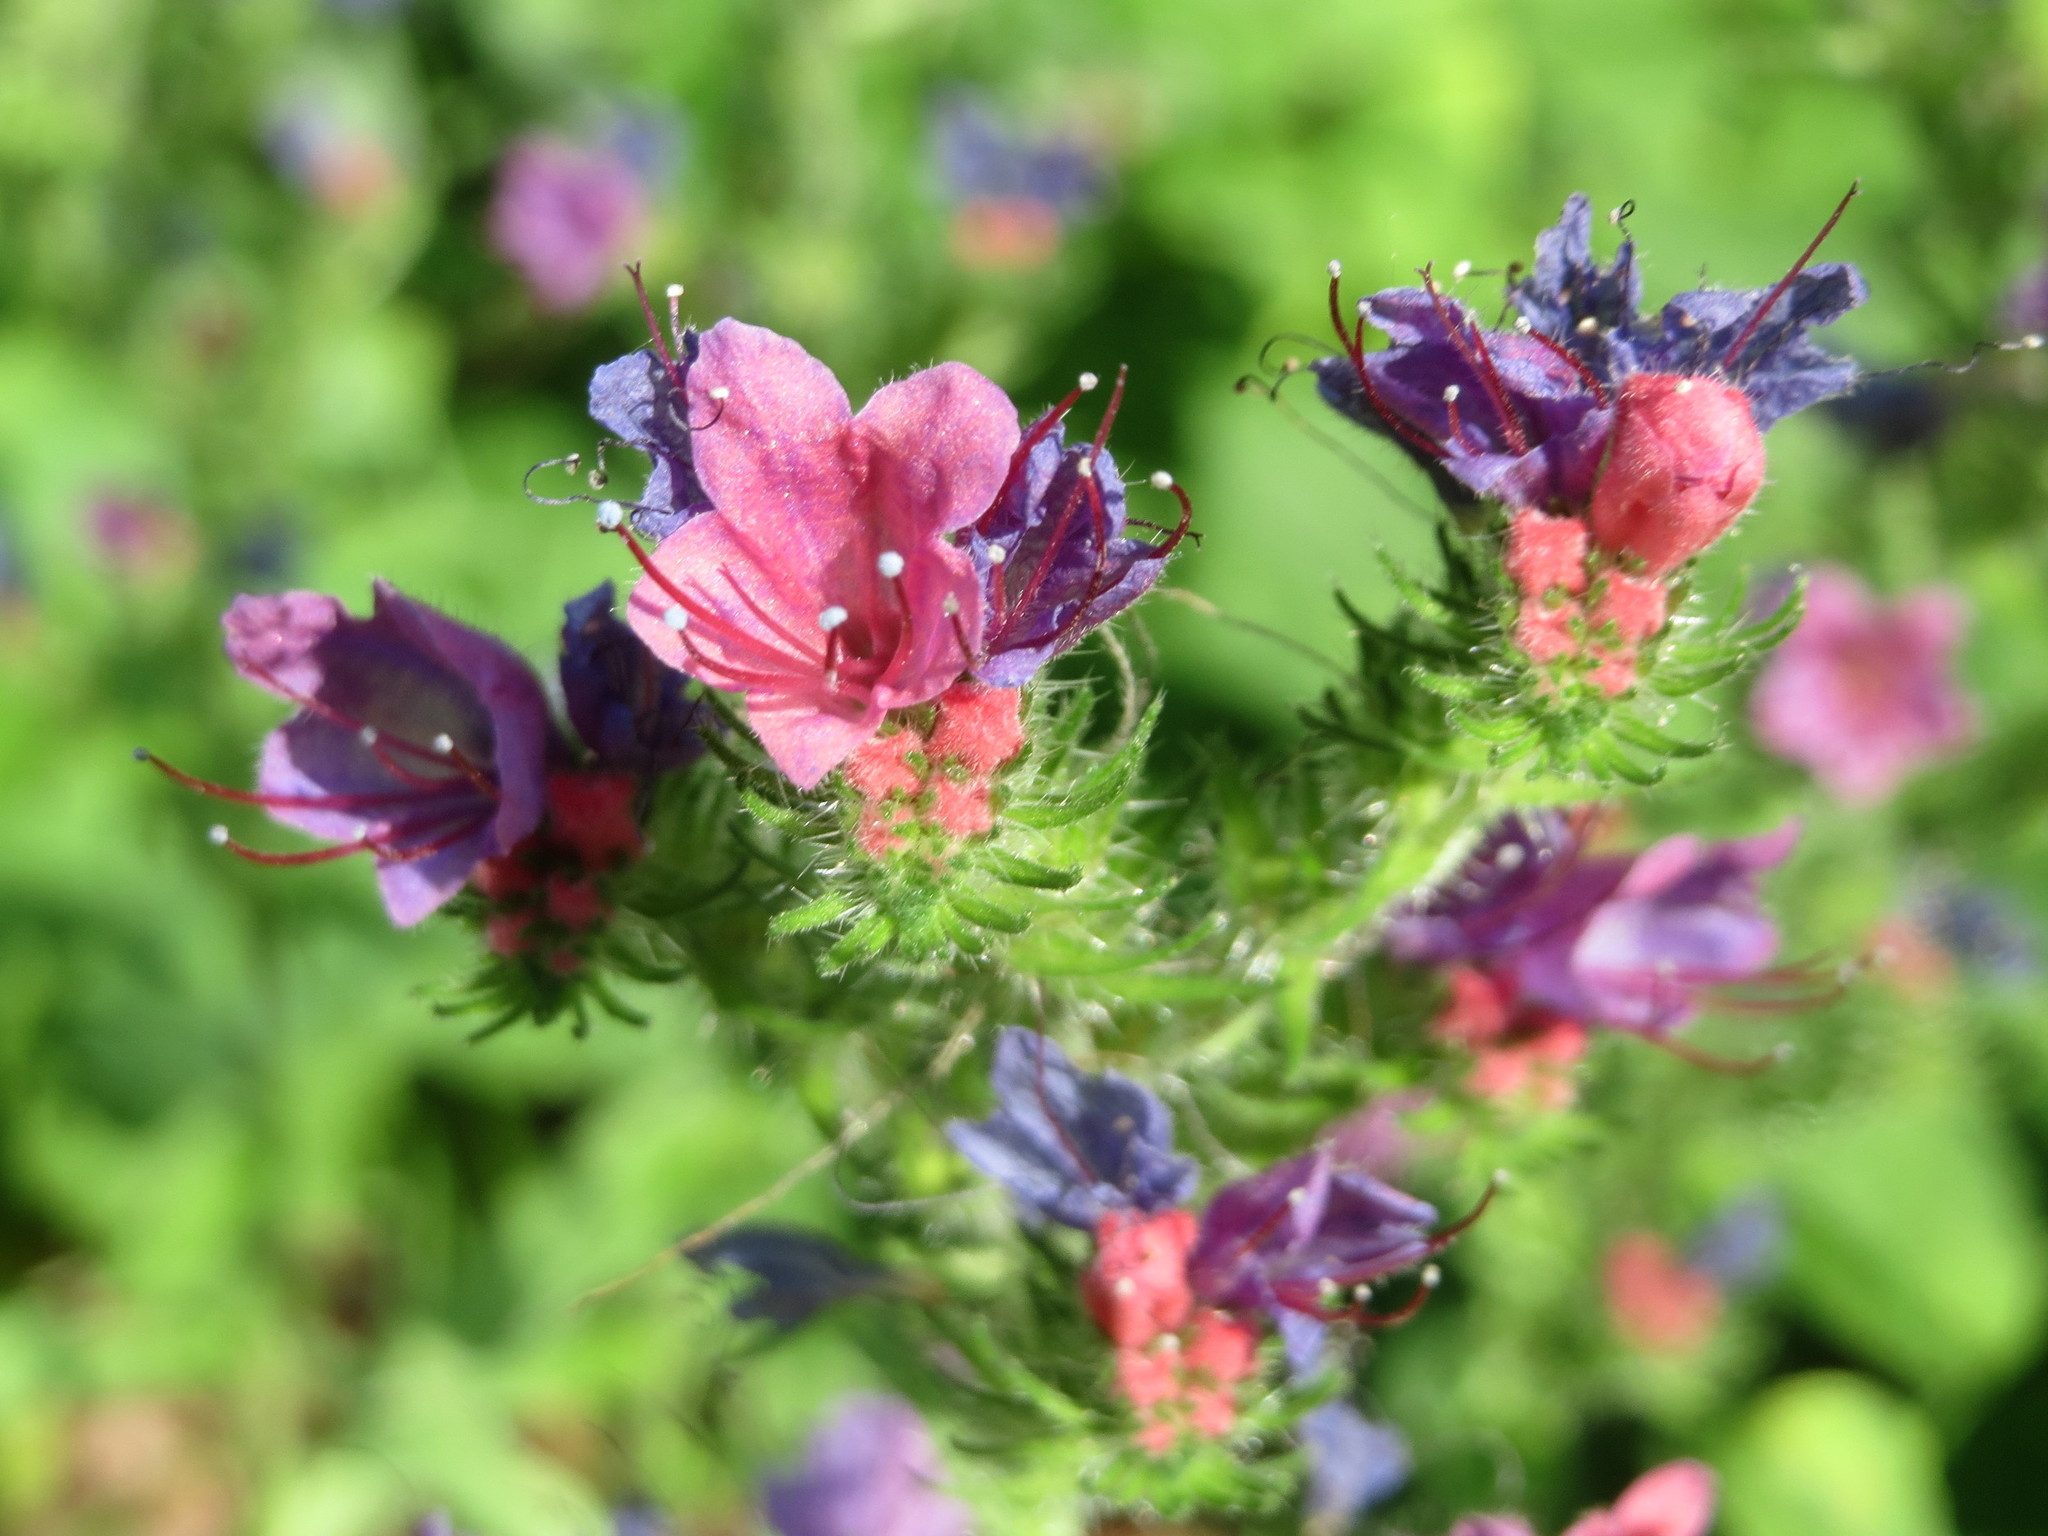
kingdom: Plantae
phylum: Tracheophyta
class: Magnoliopsida
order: Boraginales
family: Boraginaceae
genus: Echium
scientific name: Echium vulgare
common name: Common viper's bugloss
